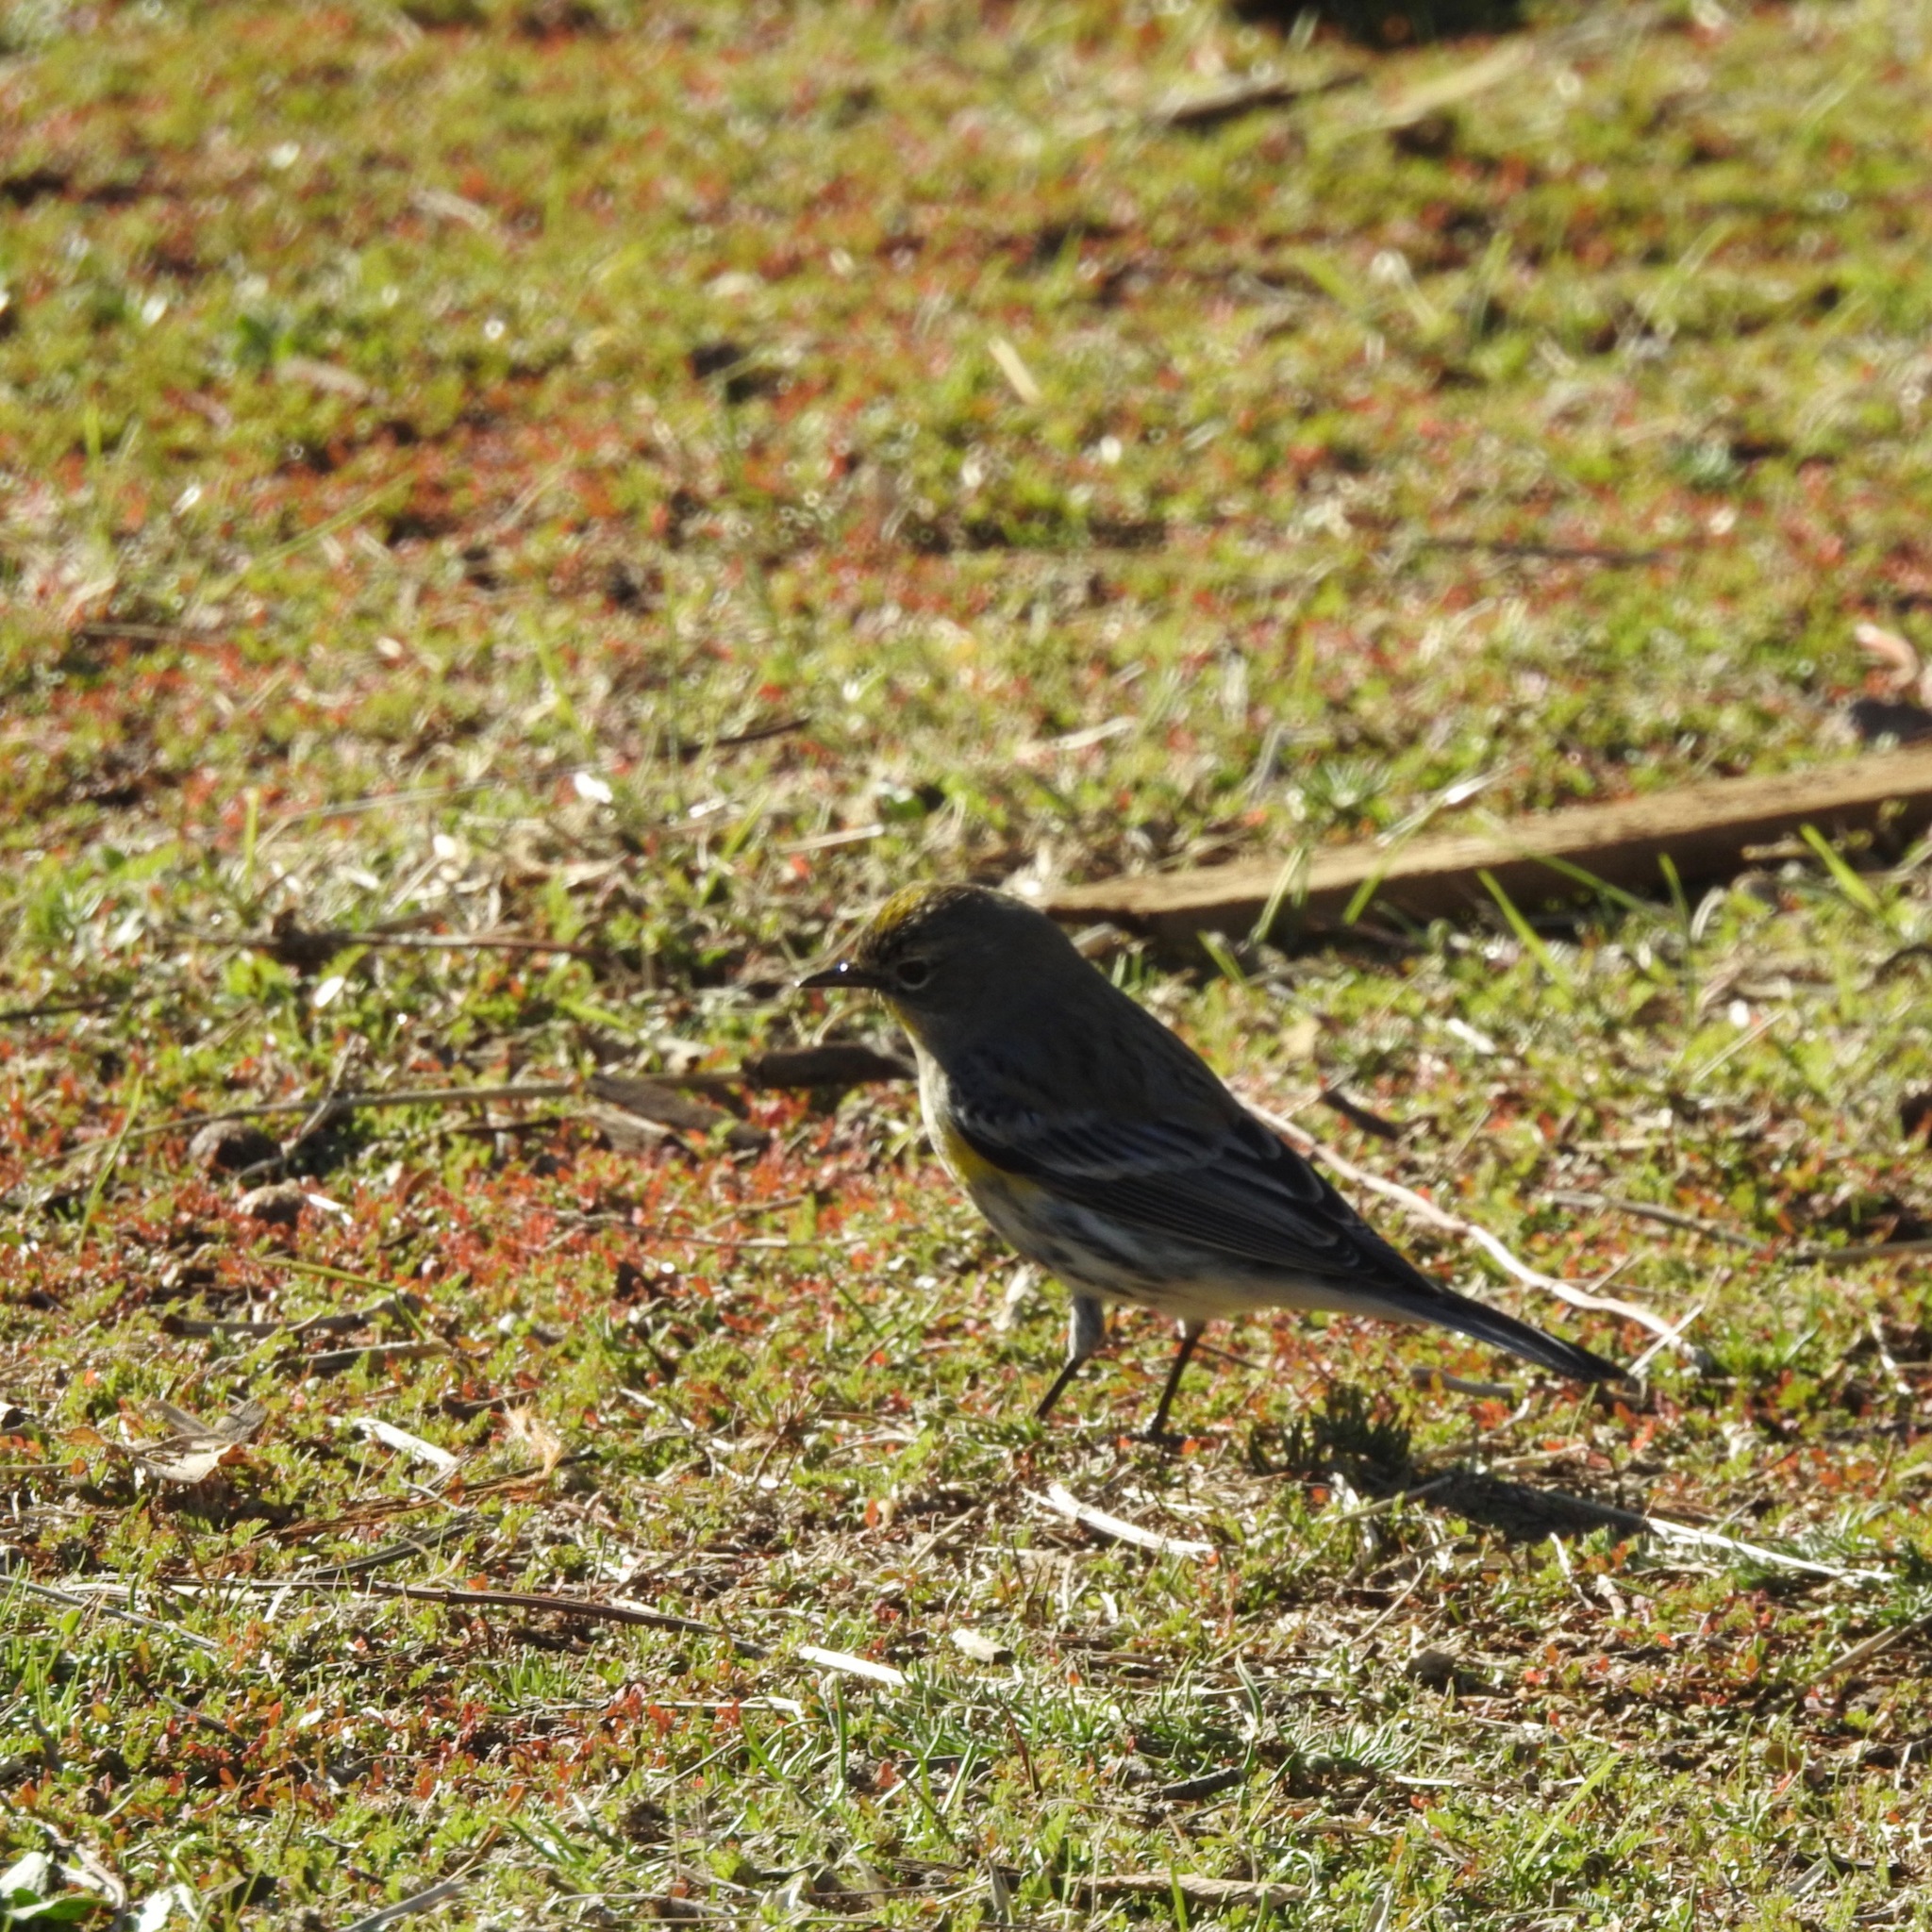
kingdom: Animalia
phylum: Chordata
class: Aves
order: Passeriformes
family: Parulidae
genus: Setophaga
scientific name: Setophaga coronata
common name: Myrtle warbler
